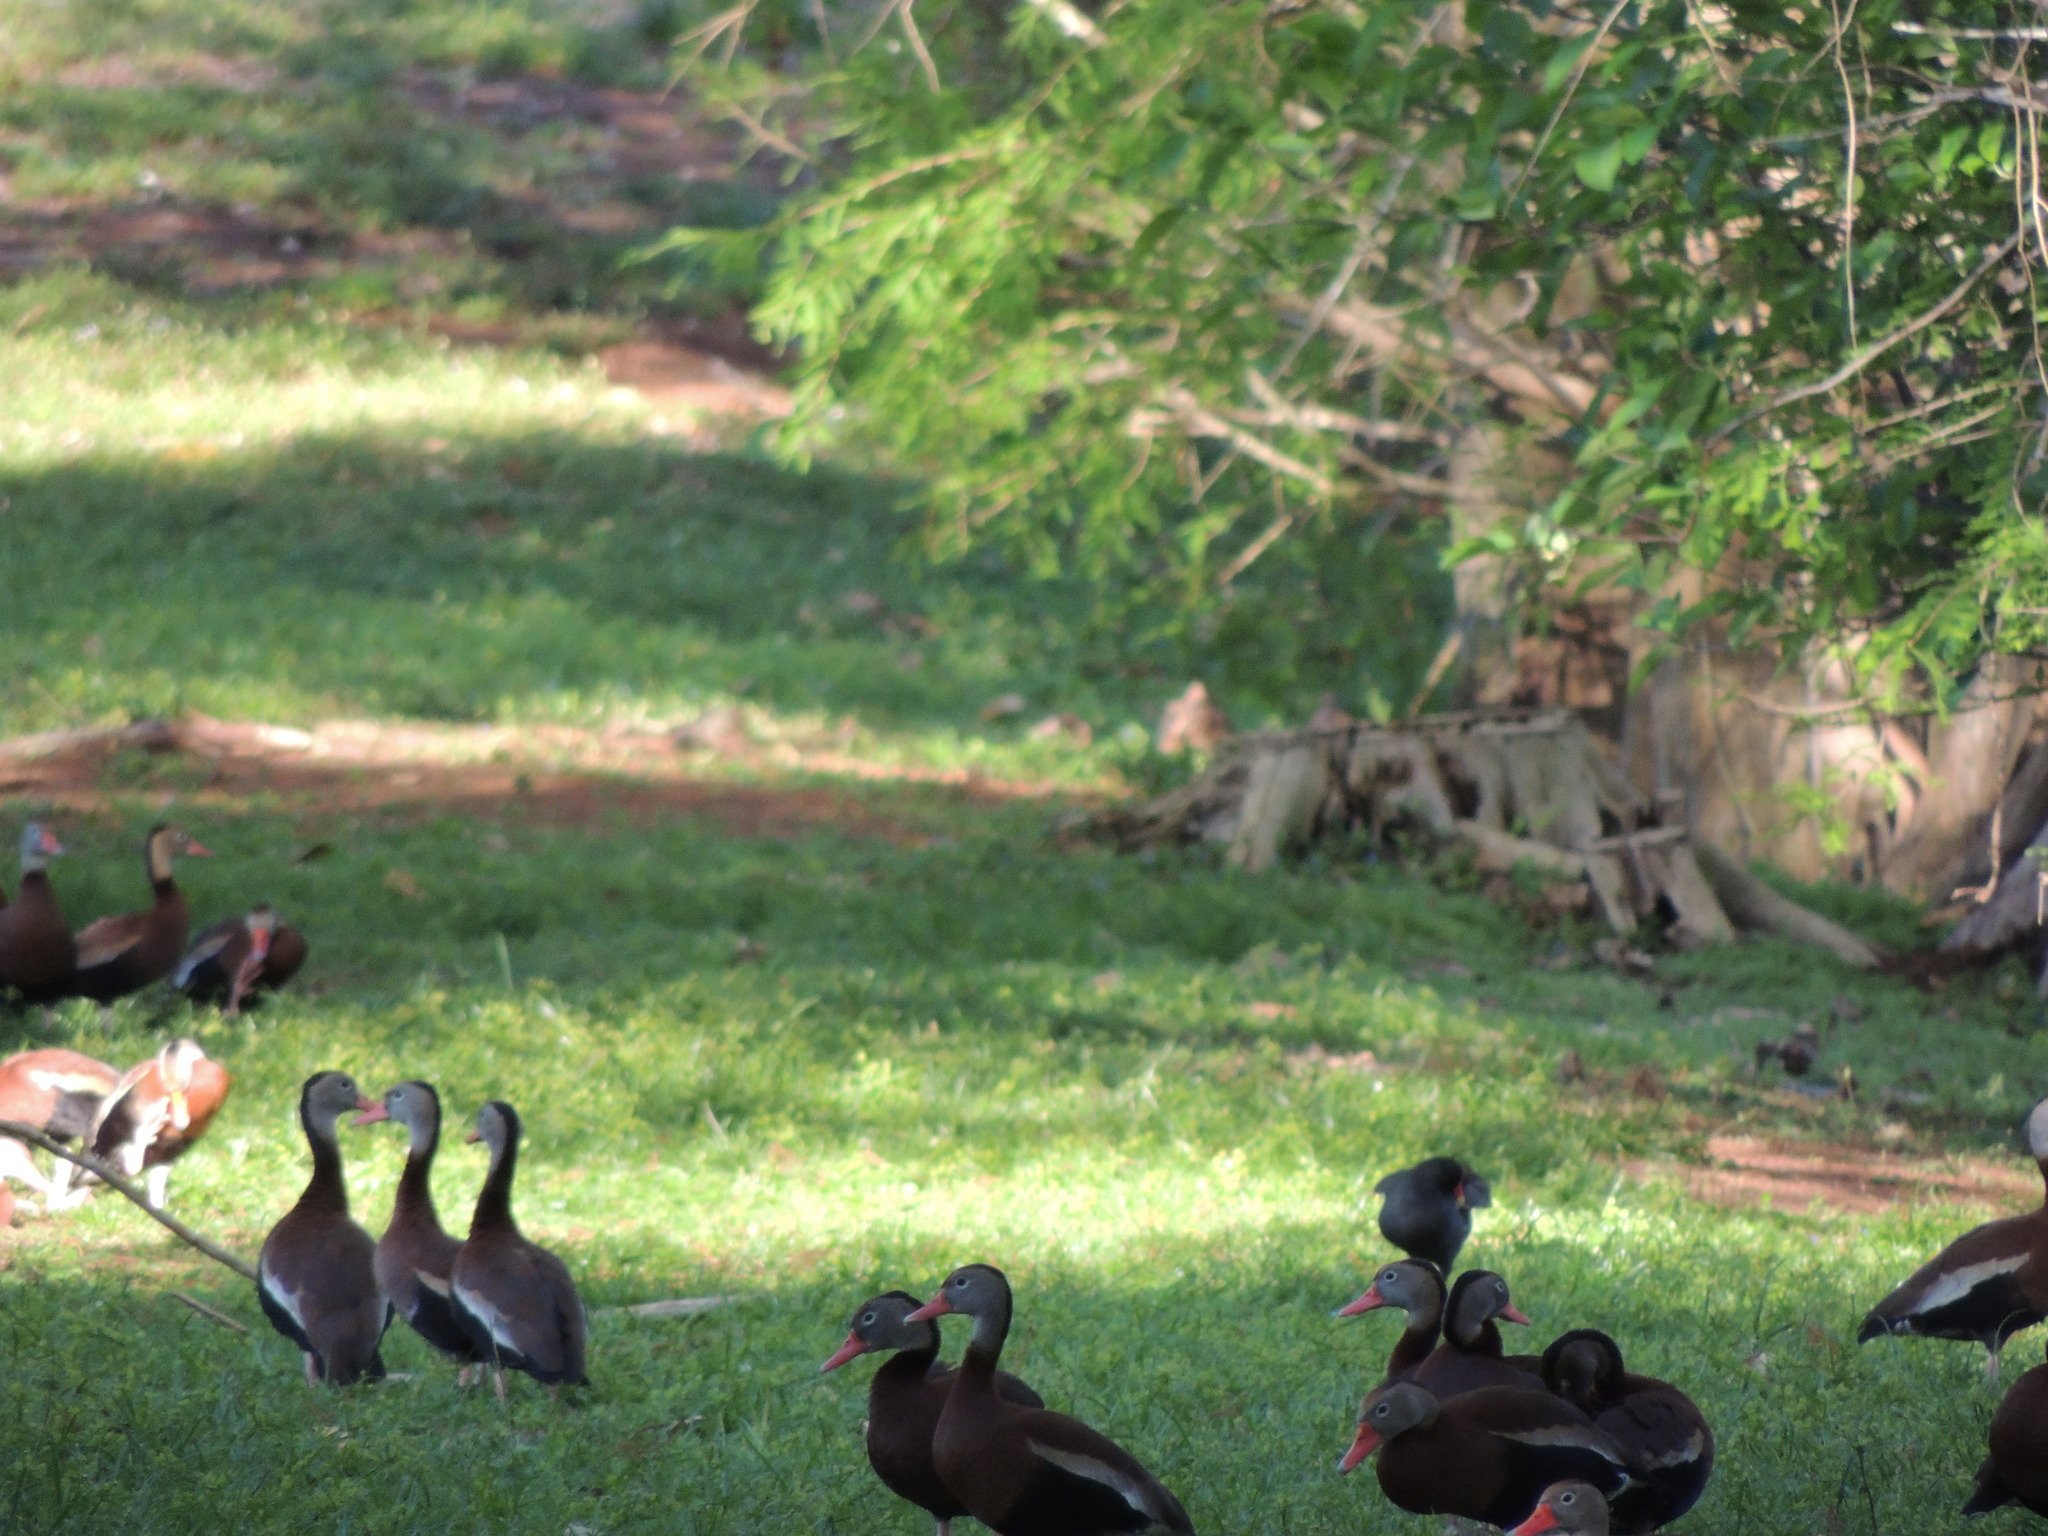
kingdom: Animalia
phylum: Chordata
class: Aves
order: Anseriformes
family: Anatidae
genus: Dendrocygna
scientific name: Dendrocygna autumnalis
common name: Black-bellied whistling duck
